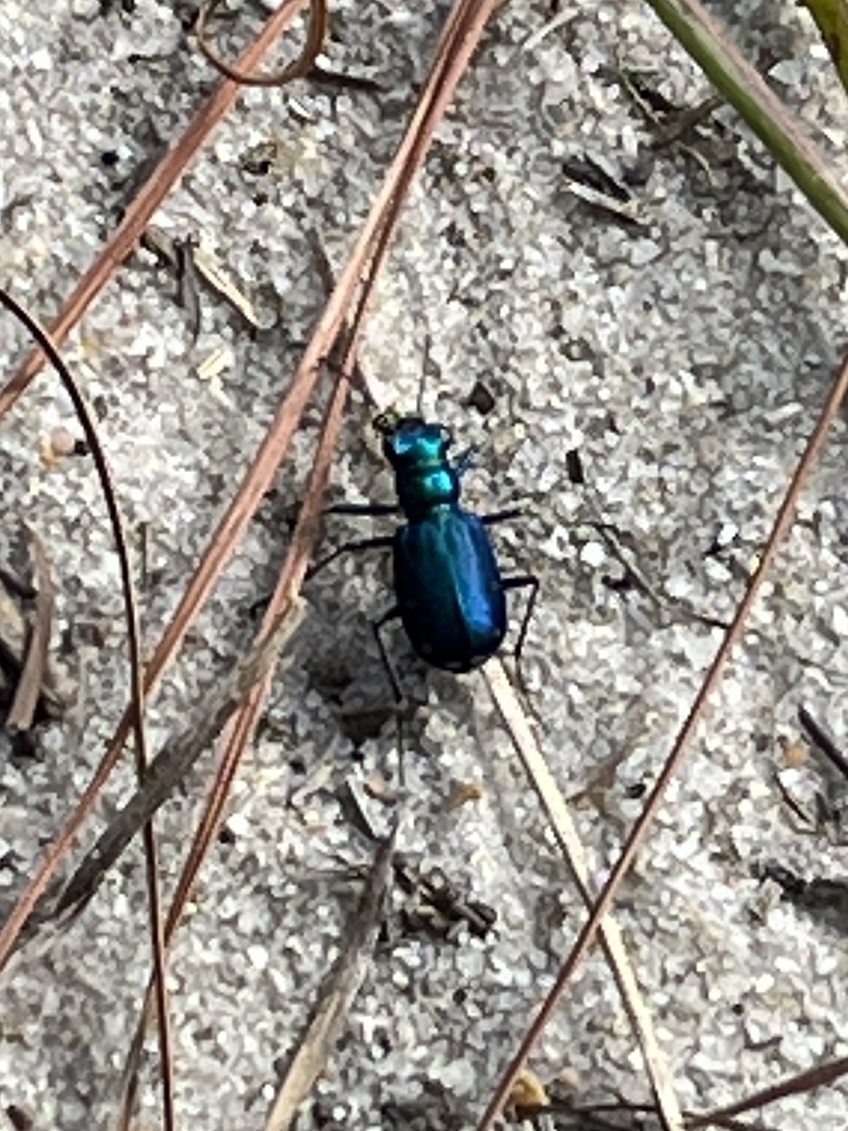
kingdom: Animalia
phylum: Arthropoda
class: Insecta
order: Coleoptera
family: Carabidae
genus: Cicindela
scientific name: Cicindela scutellaris
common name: Festive tiger beetle
